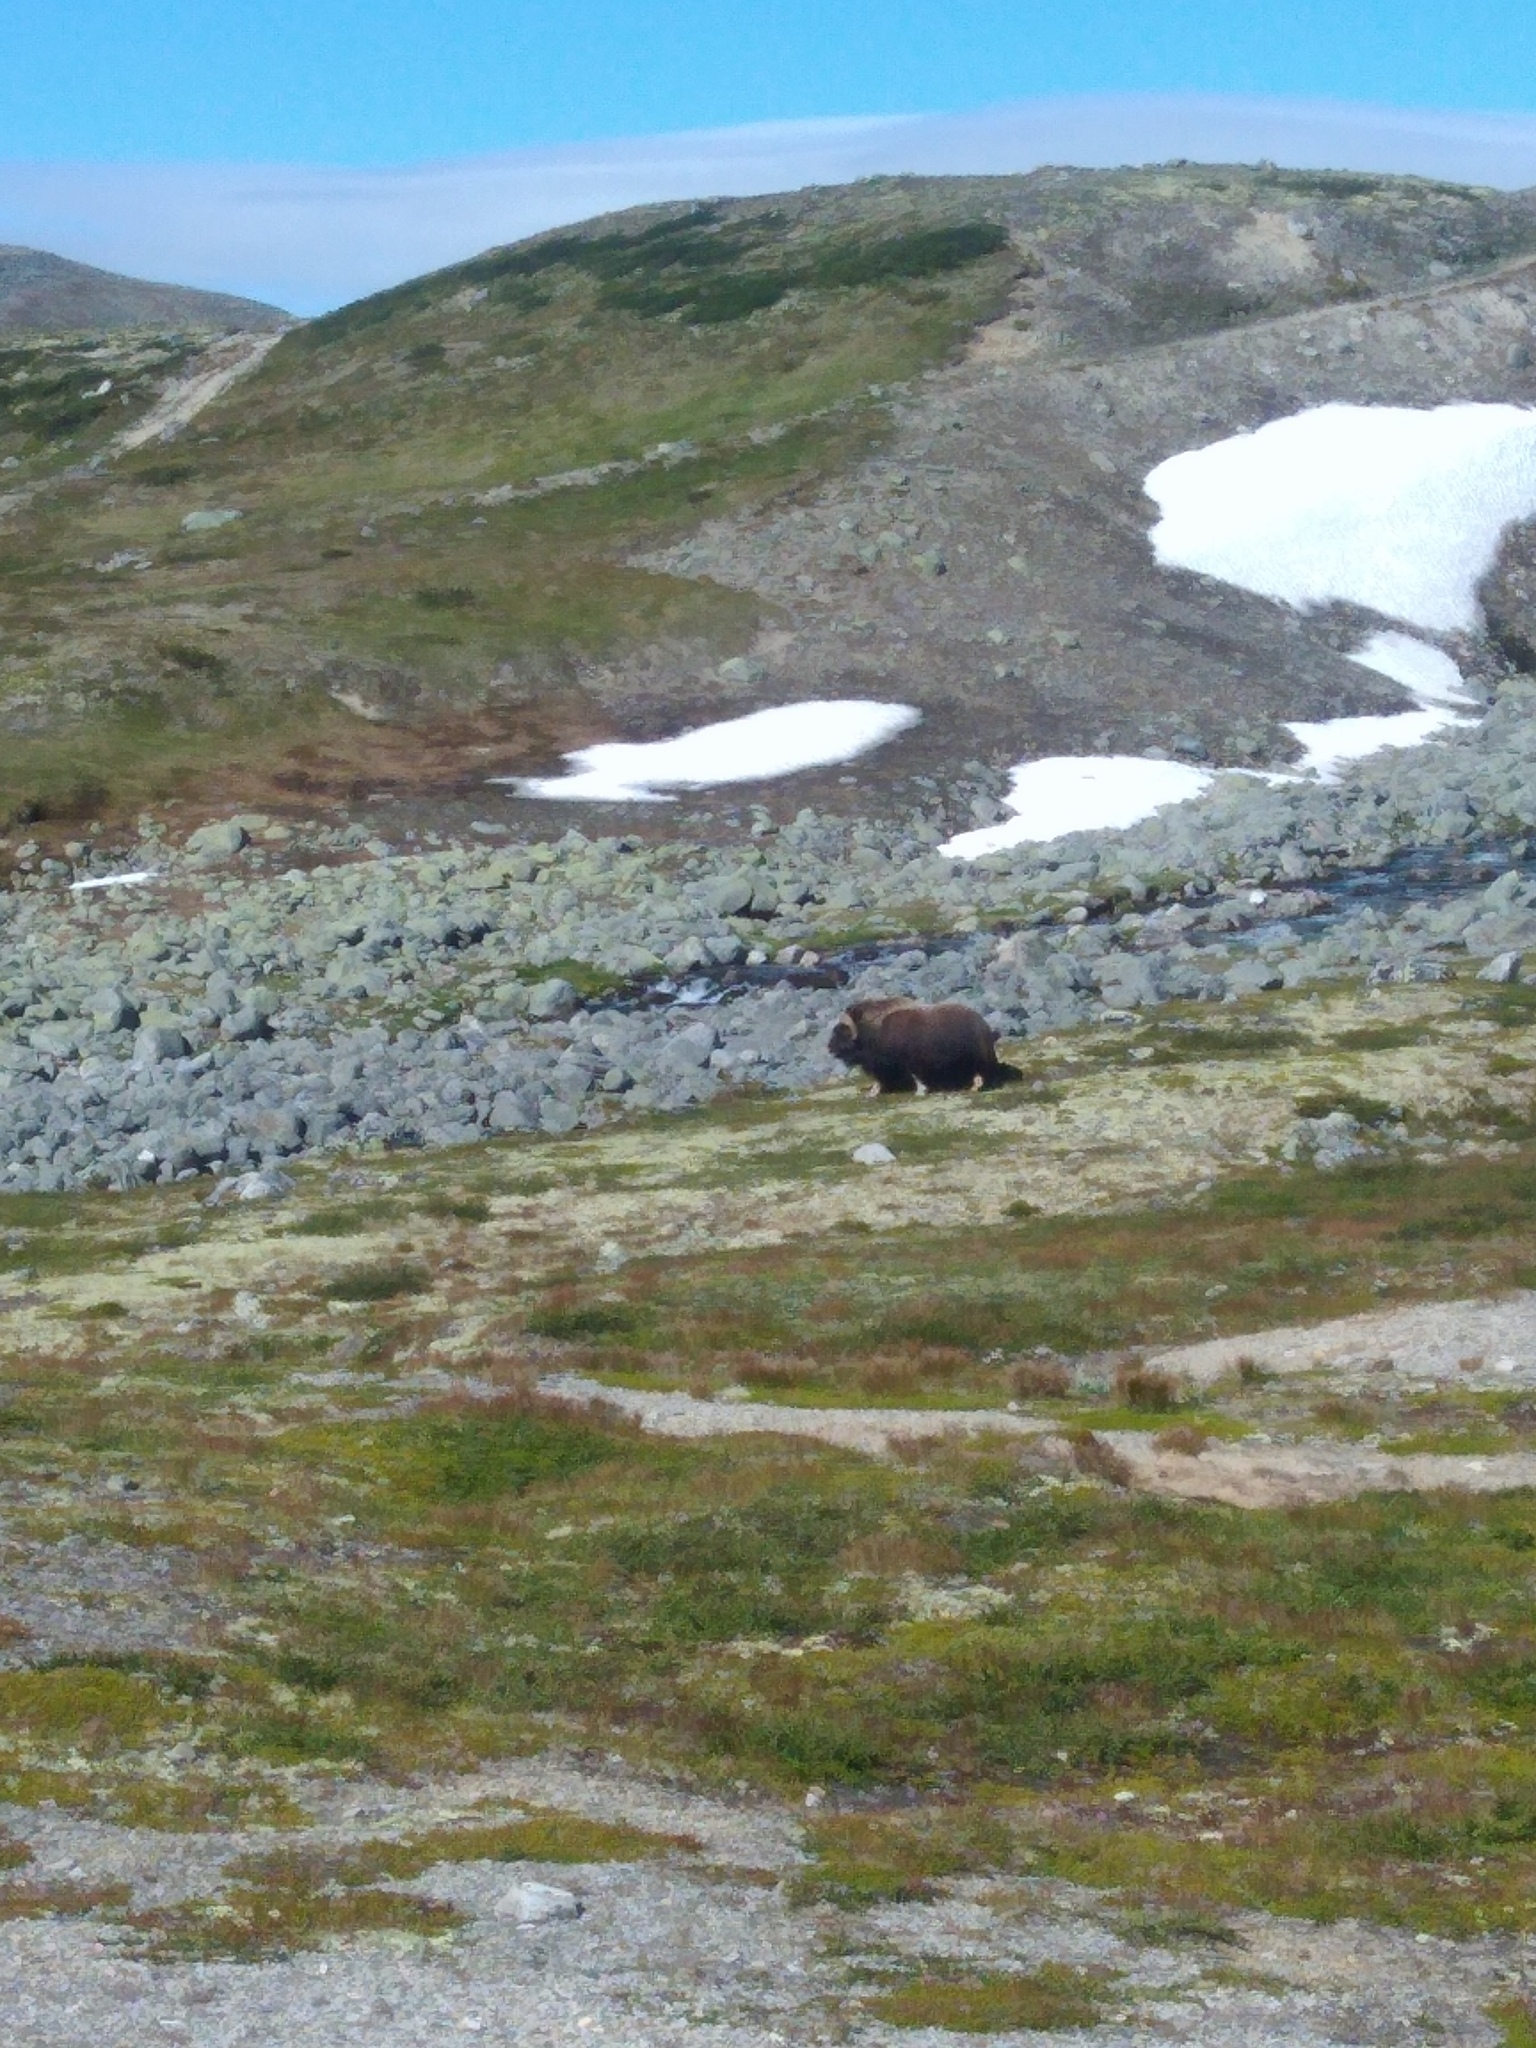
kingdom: Animalia
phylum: Chordata
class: Mammalia
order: Artiodactyla
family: Bovidae
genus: Ovibos
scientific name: Ovibos moschatus
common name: Muskox
